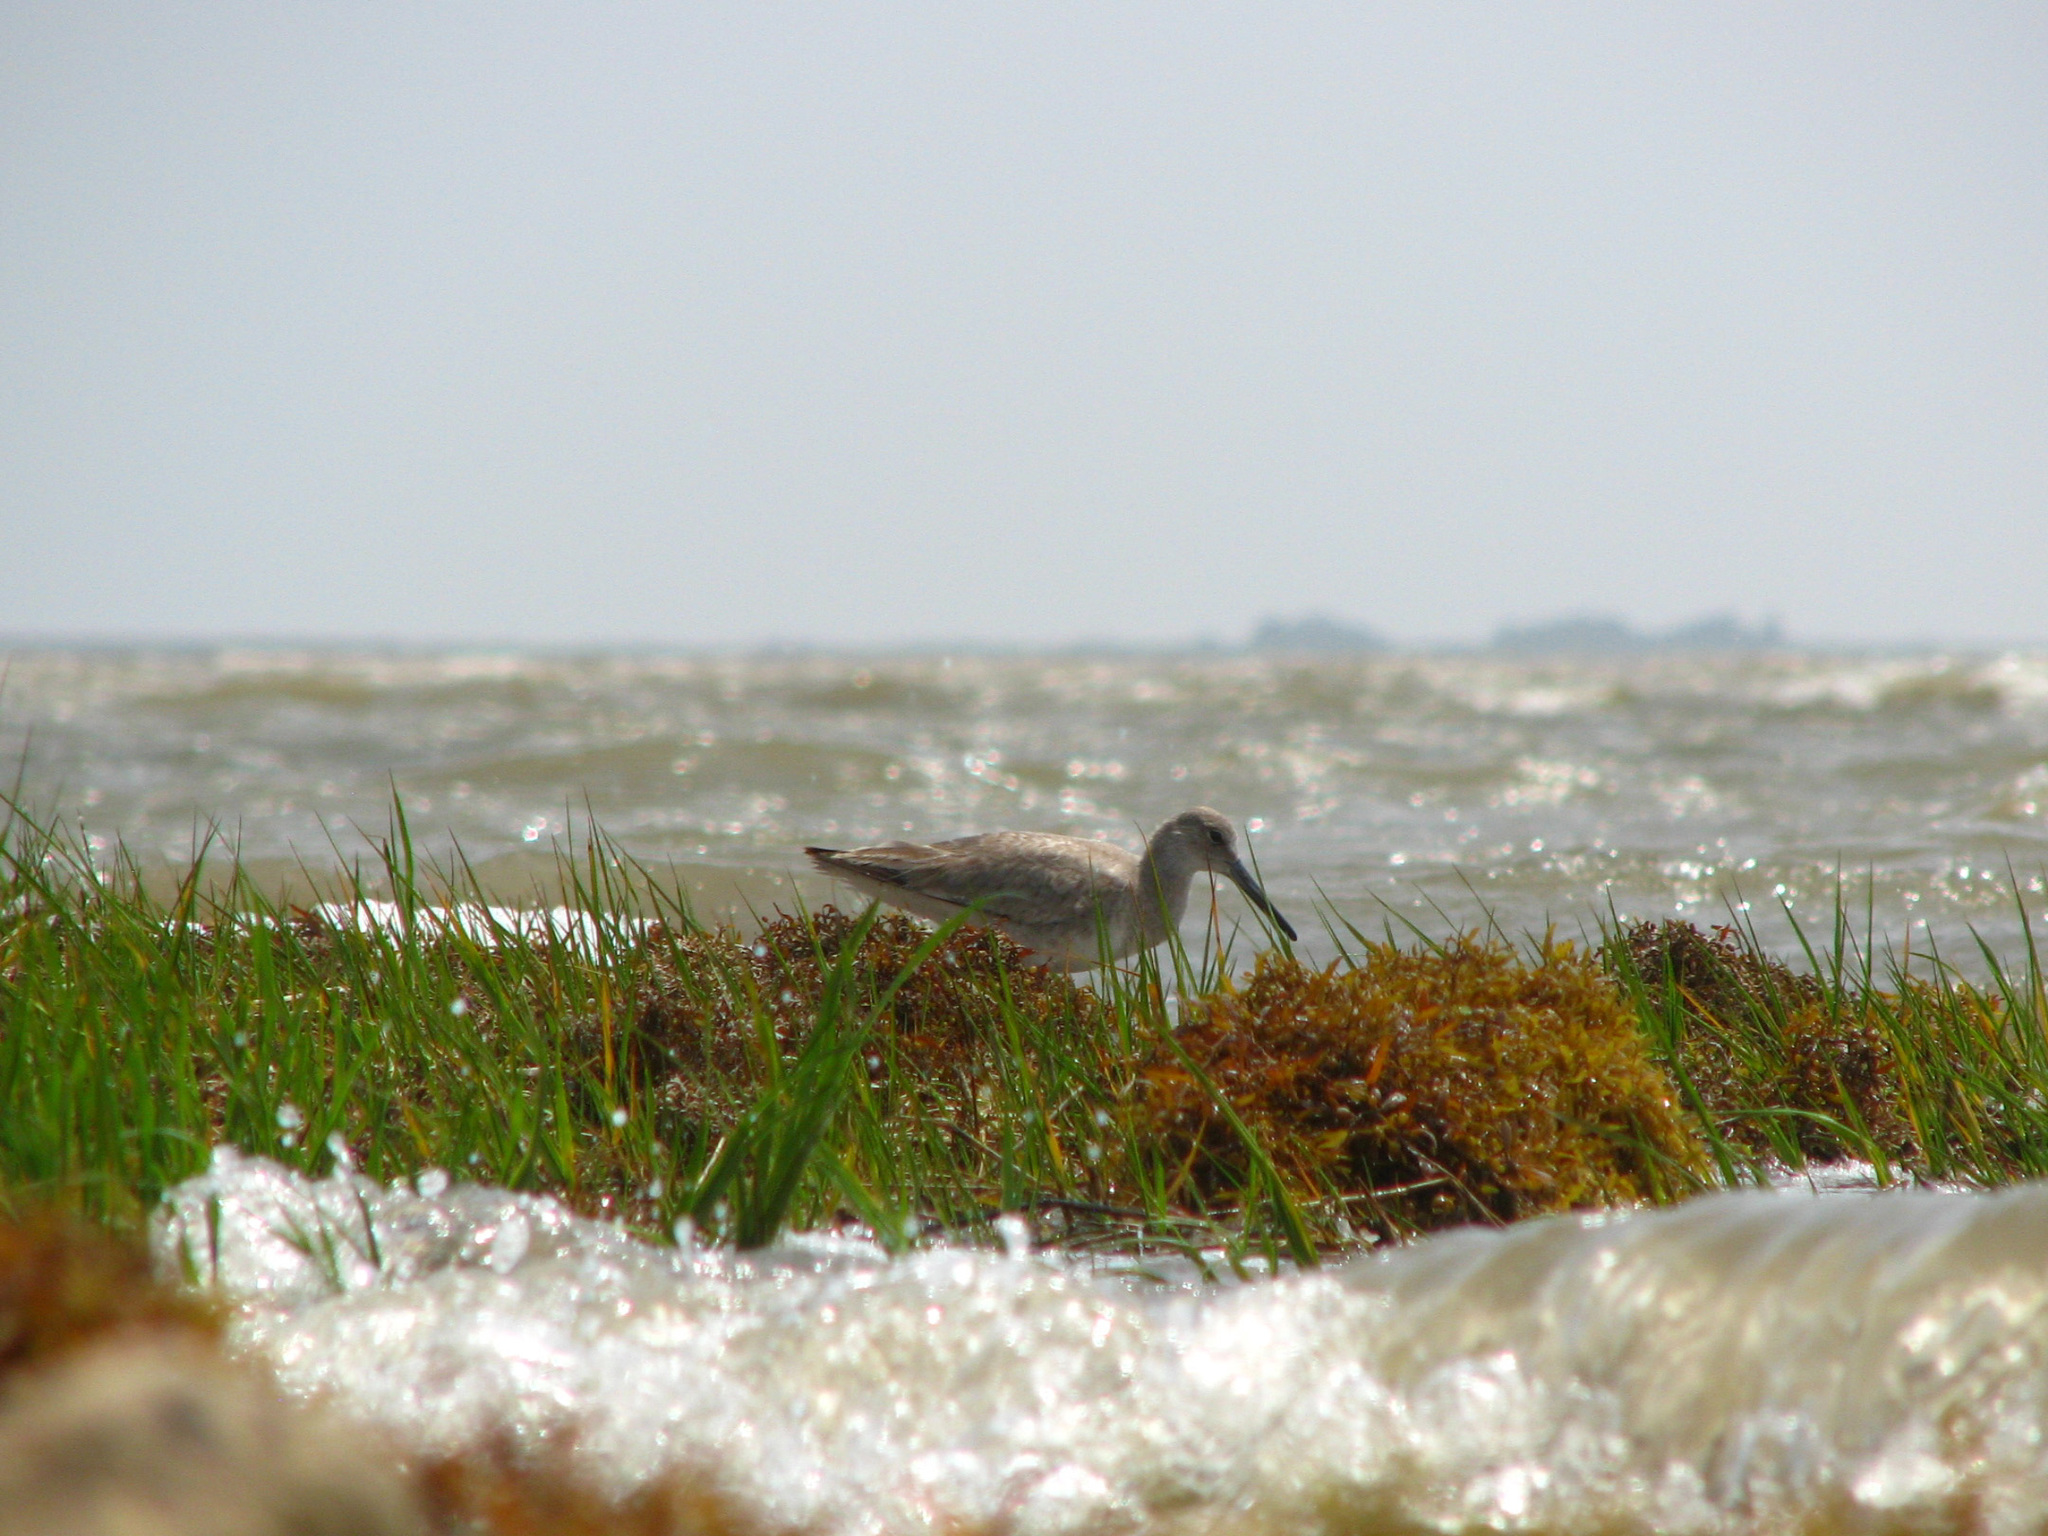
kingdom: Animalia
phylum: Chordata
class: Aves
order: Charadriiformes
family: Scolopacidae
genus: Tringa
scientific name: Tringa semipalmata
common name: Willet
